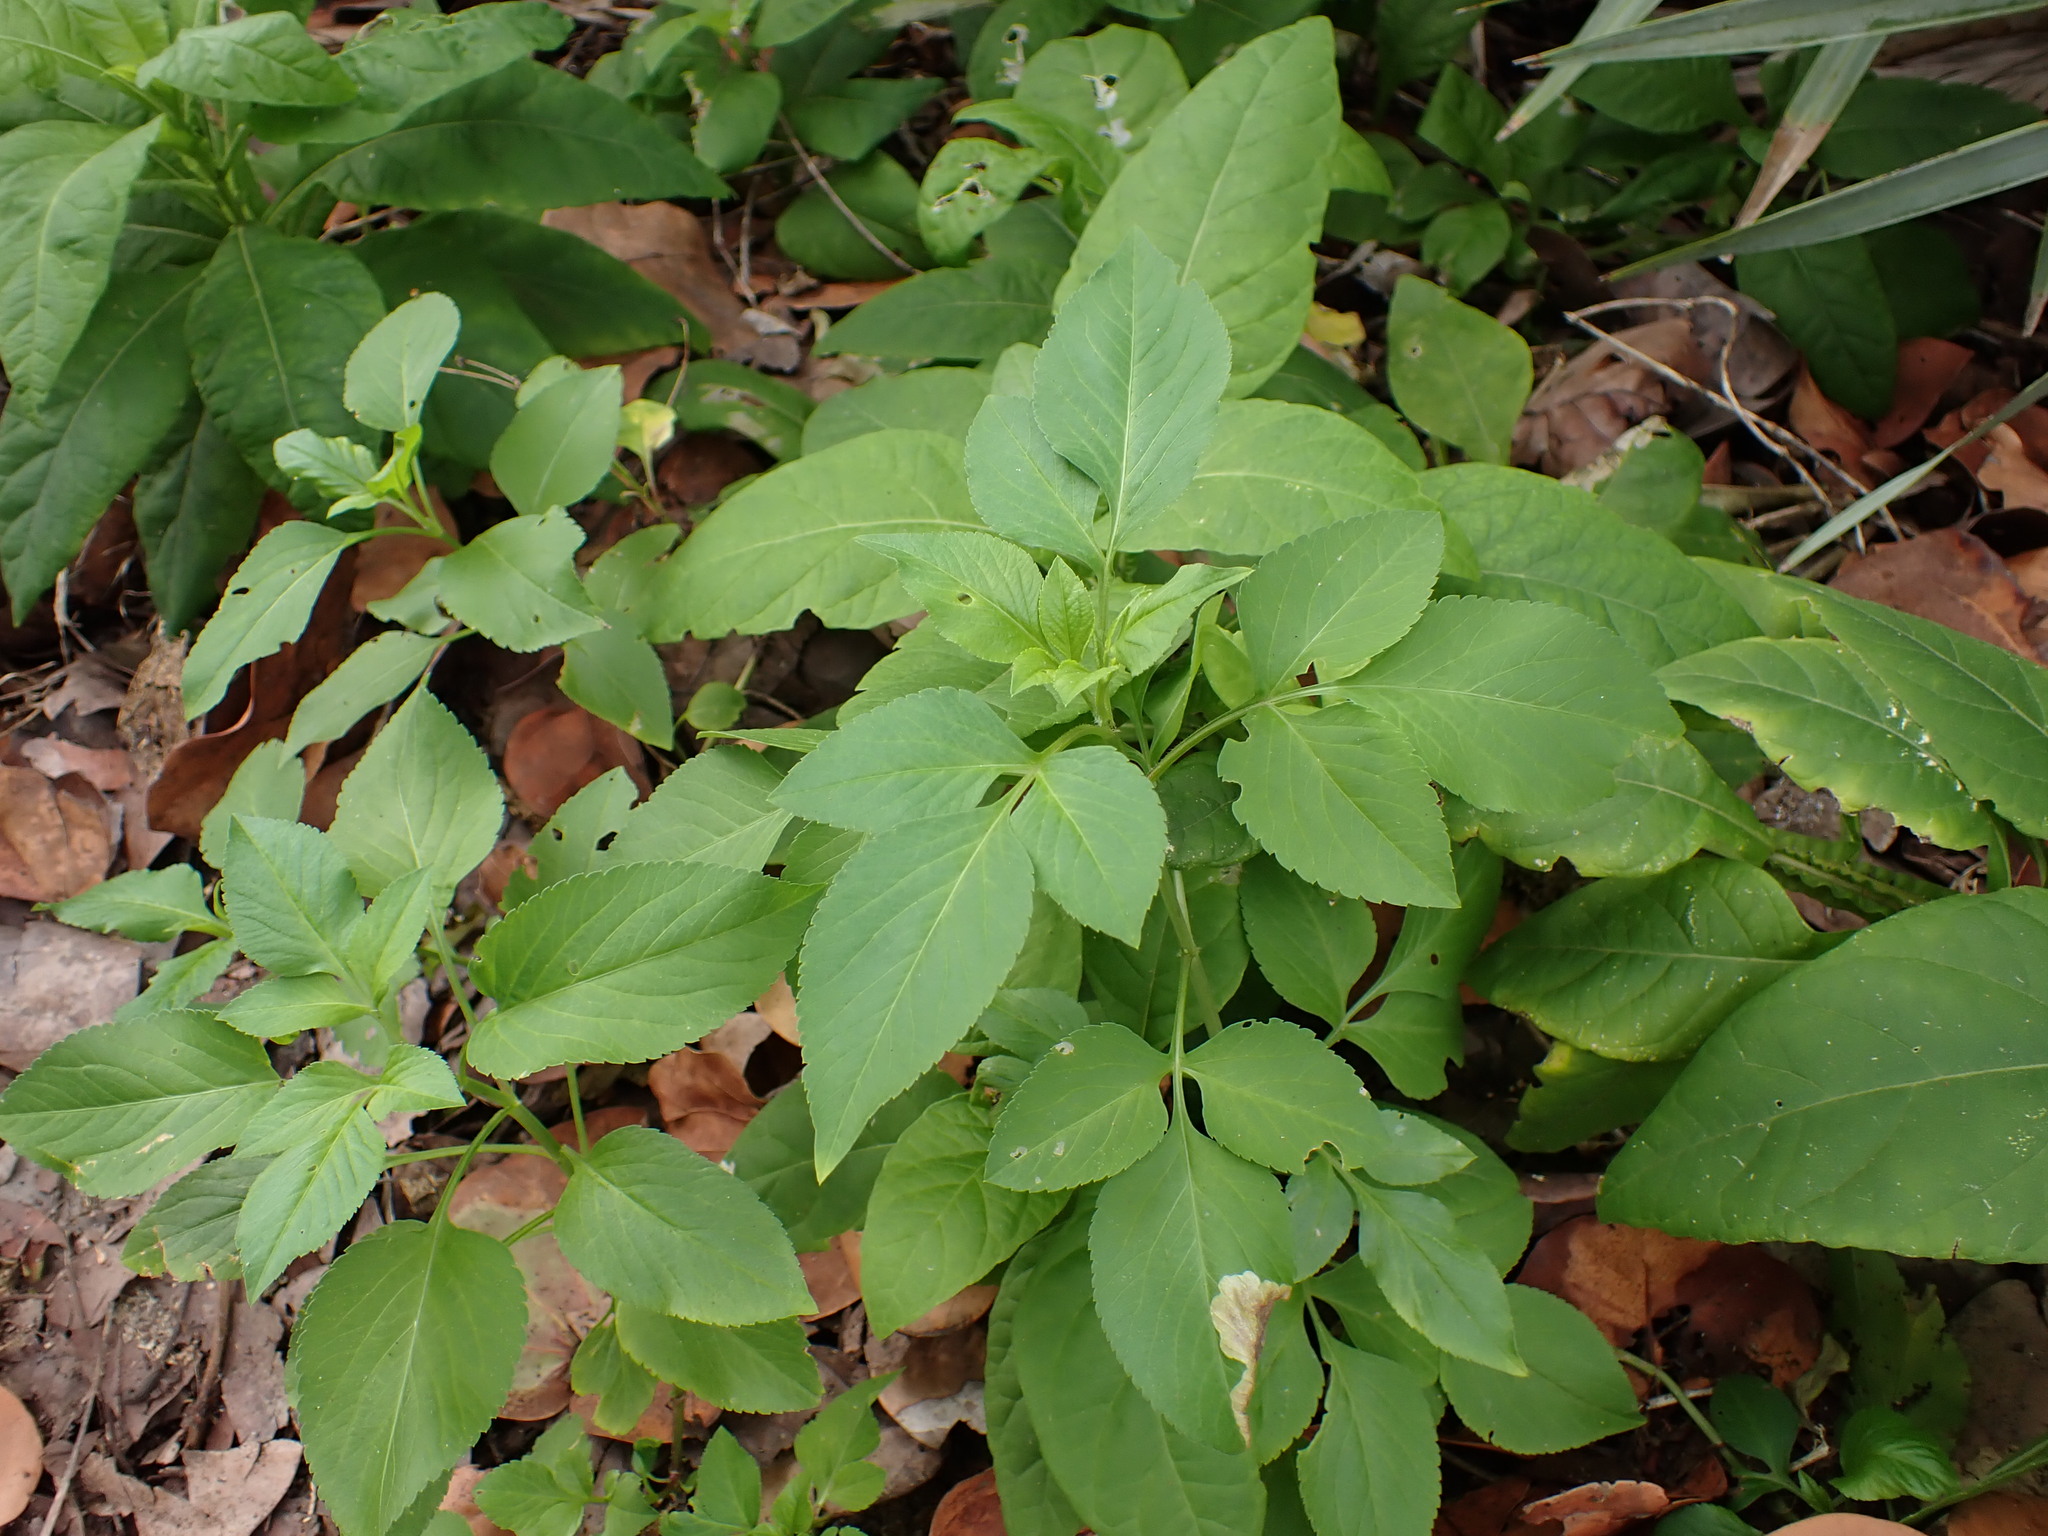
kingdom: Plantae
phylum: Tracheophyta
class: Magnoliopsida
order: Asterales
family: Asteraceae
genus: Bidens
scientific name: Bidens alba
